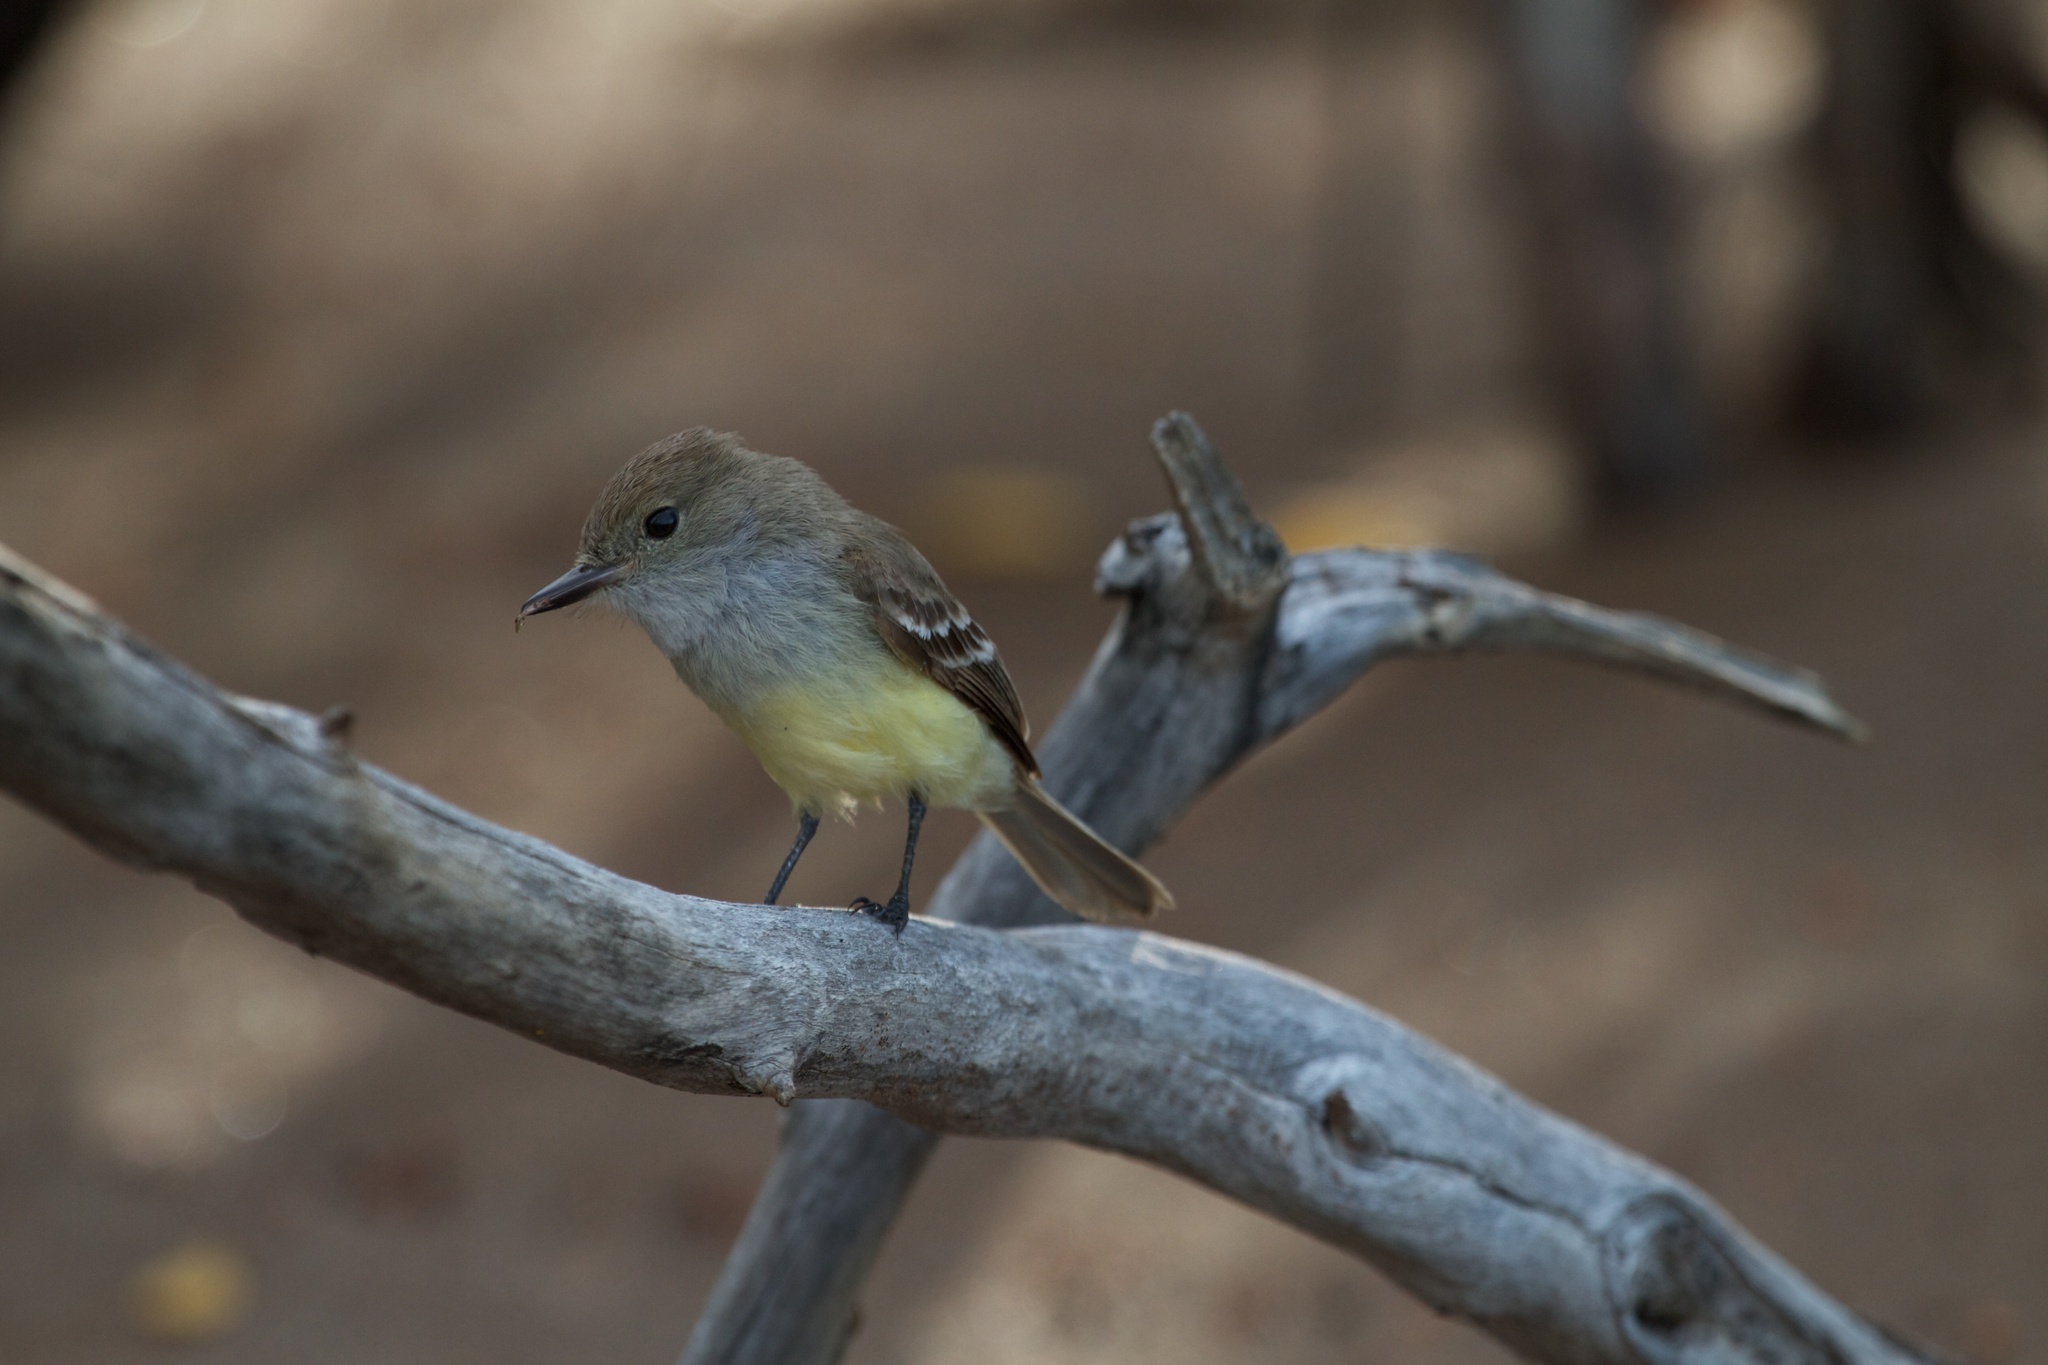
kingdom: Animalia
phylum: Chordata
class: Aves
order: Passeriformes
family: Tyrannidae
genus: Myiarchus
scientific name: Myiarchus magnirostris
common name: Galapagos flycatcher
